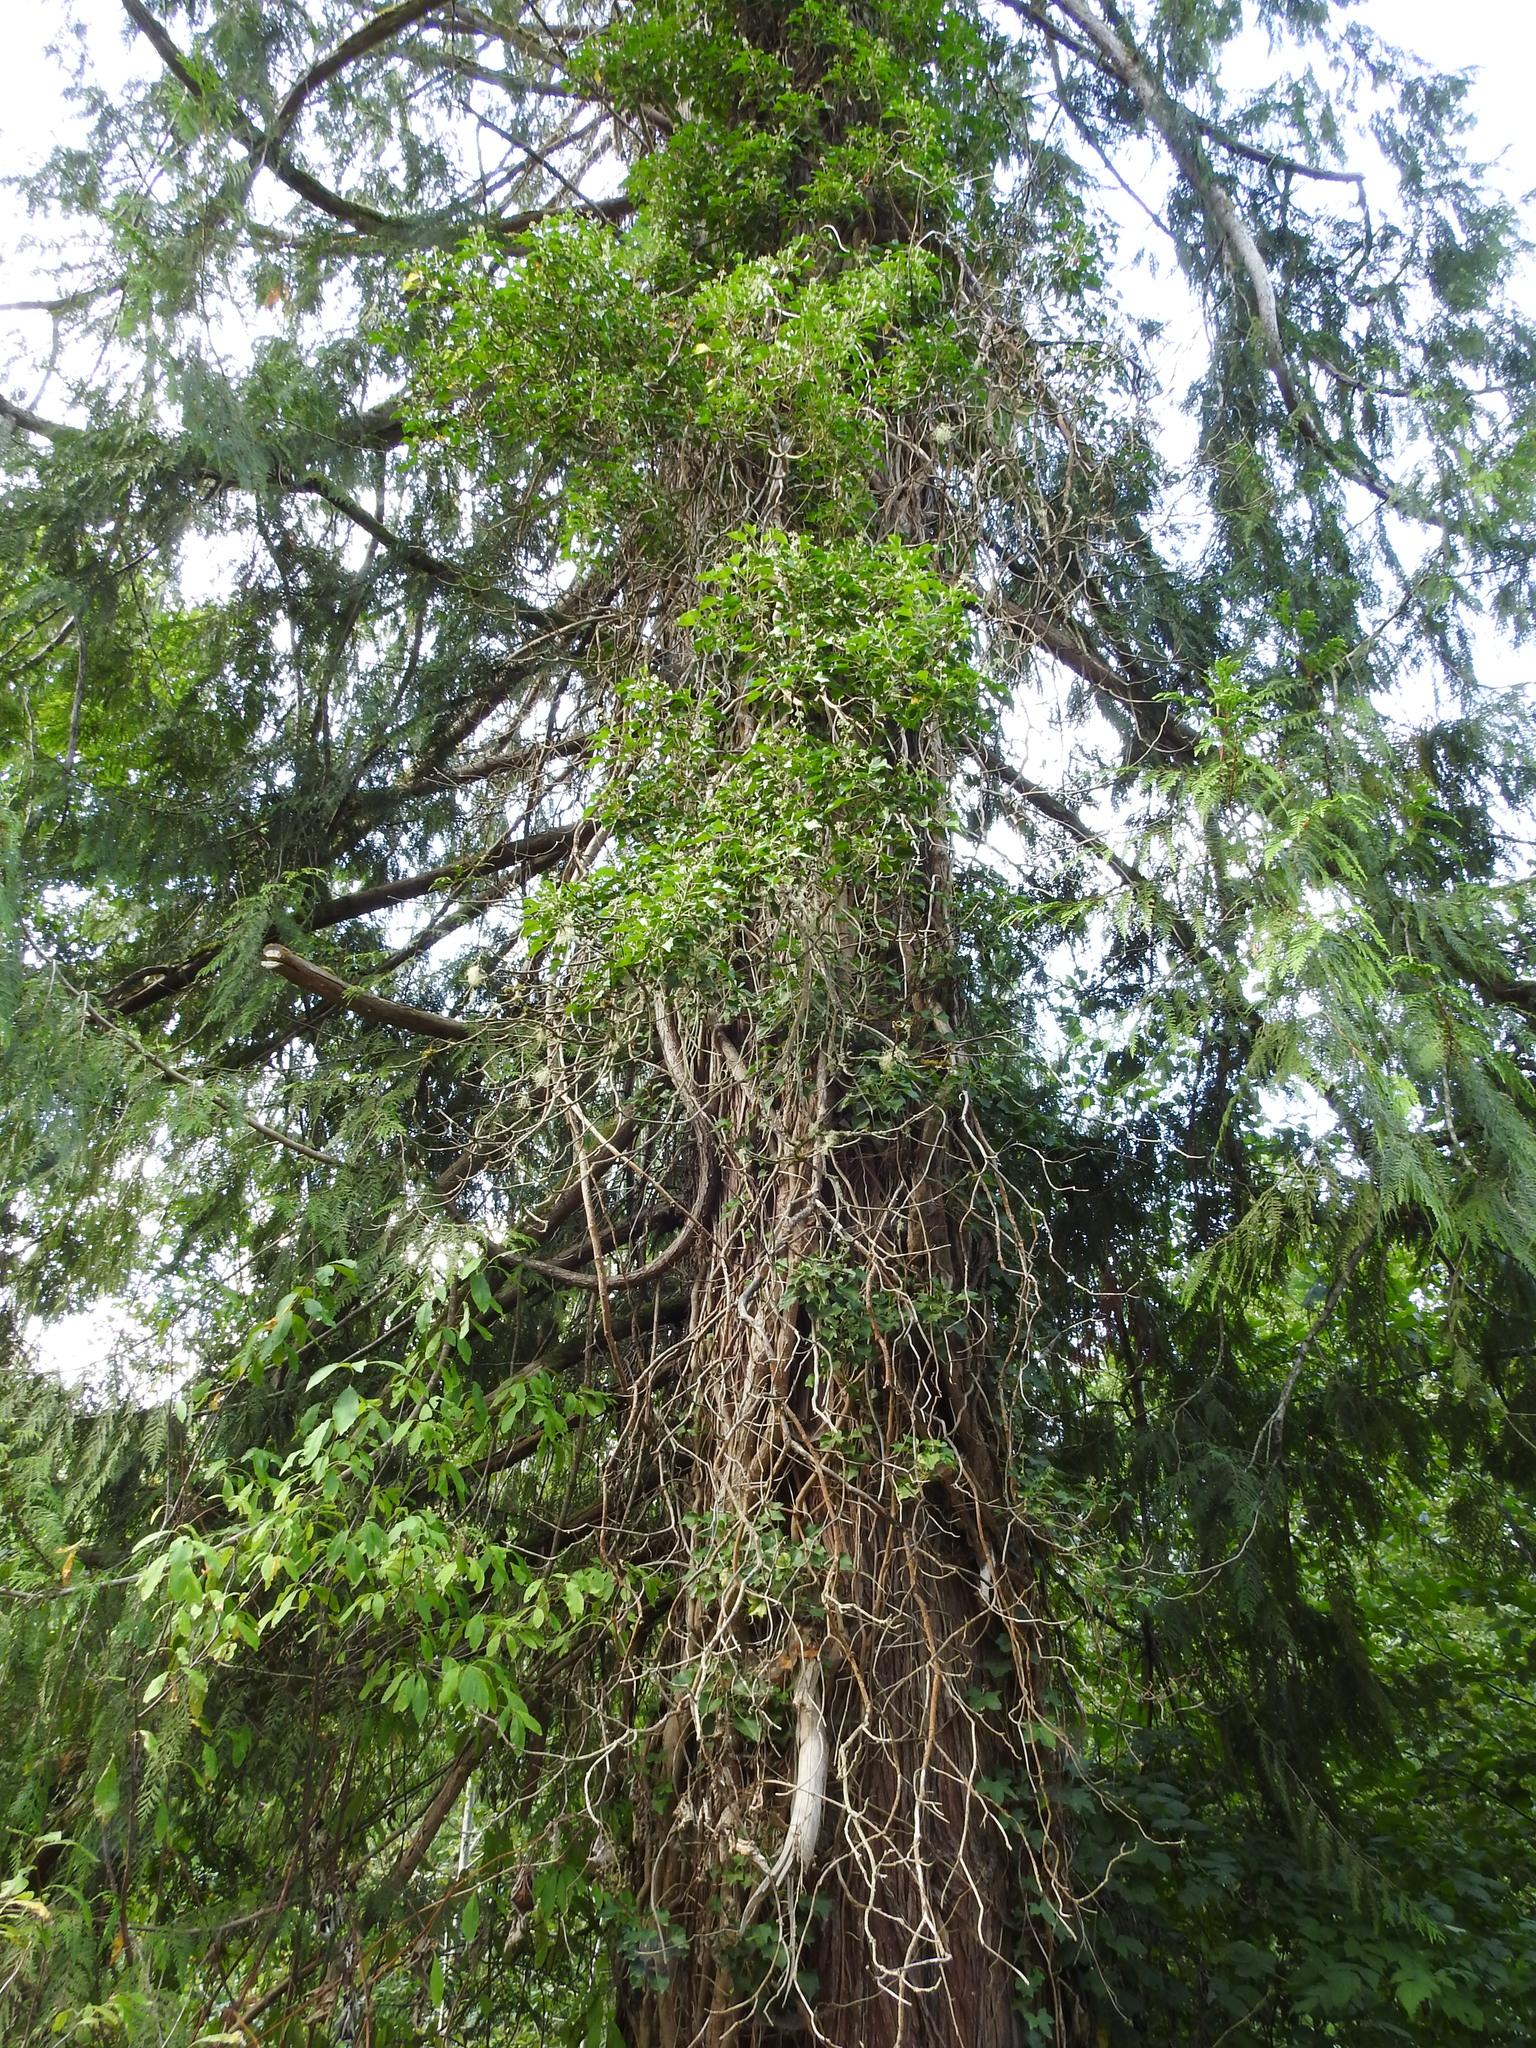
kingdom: Plantae
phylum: Tracheophyta
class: Magnoliopsida
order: Apiales
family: Araliaceae
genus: Hedera
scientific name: Hedera helix
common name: Ivy
